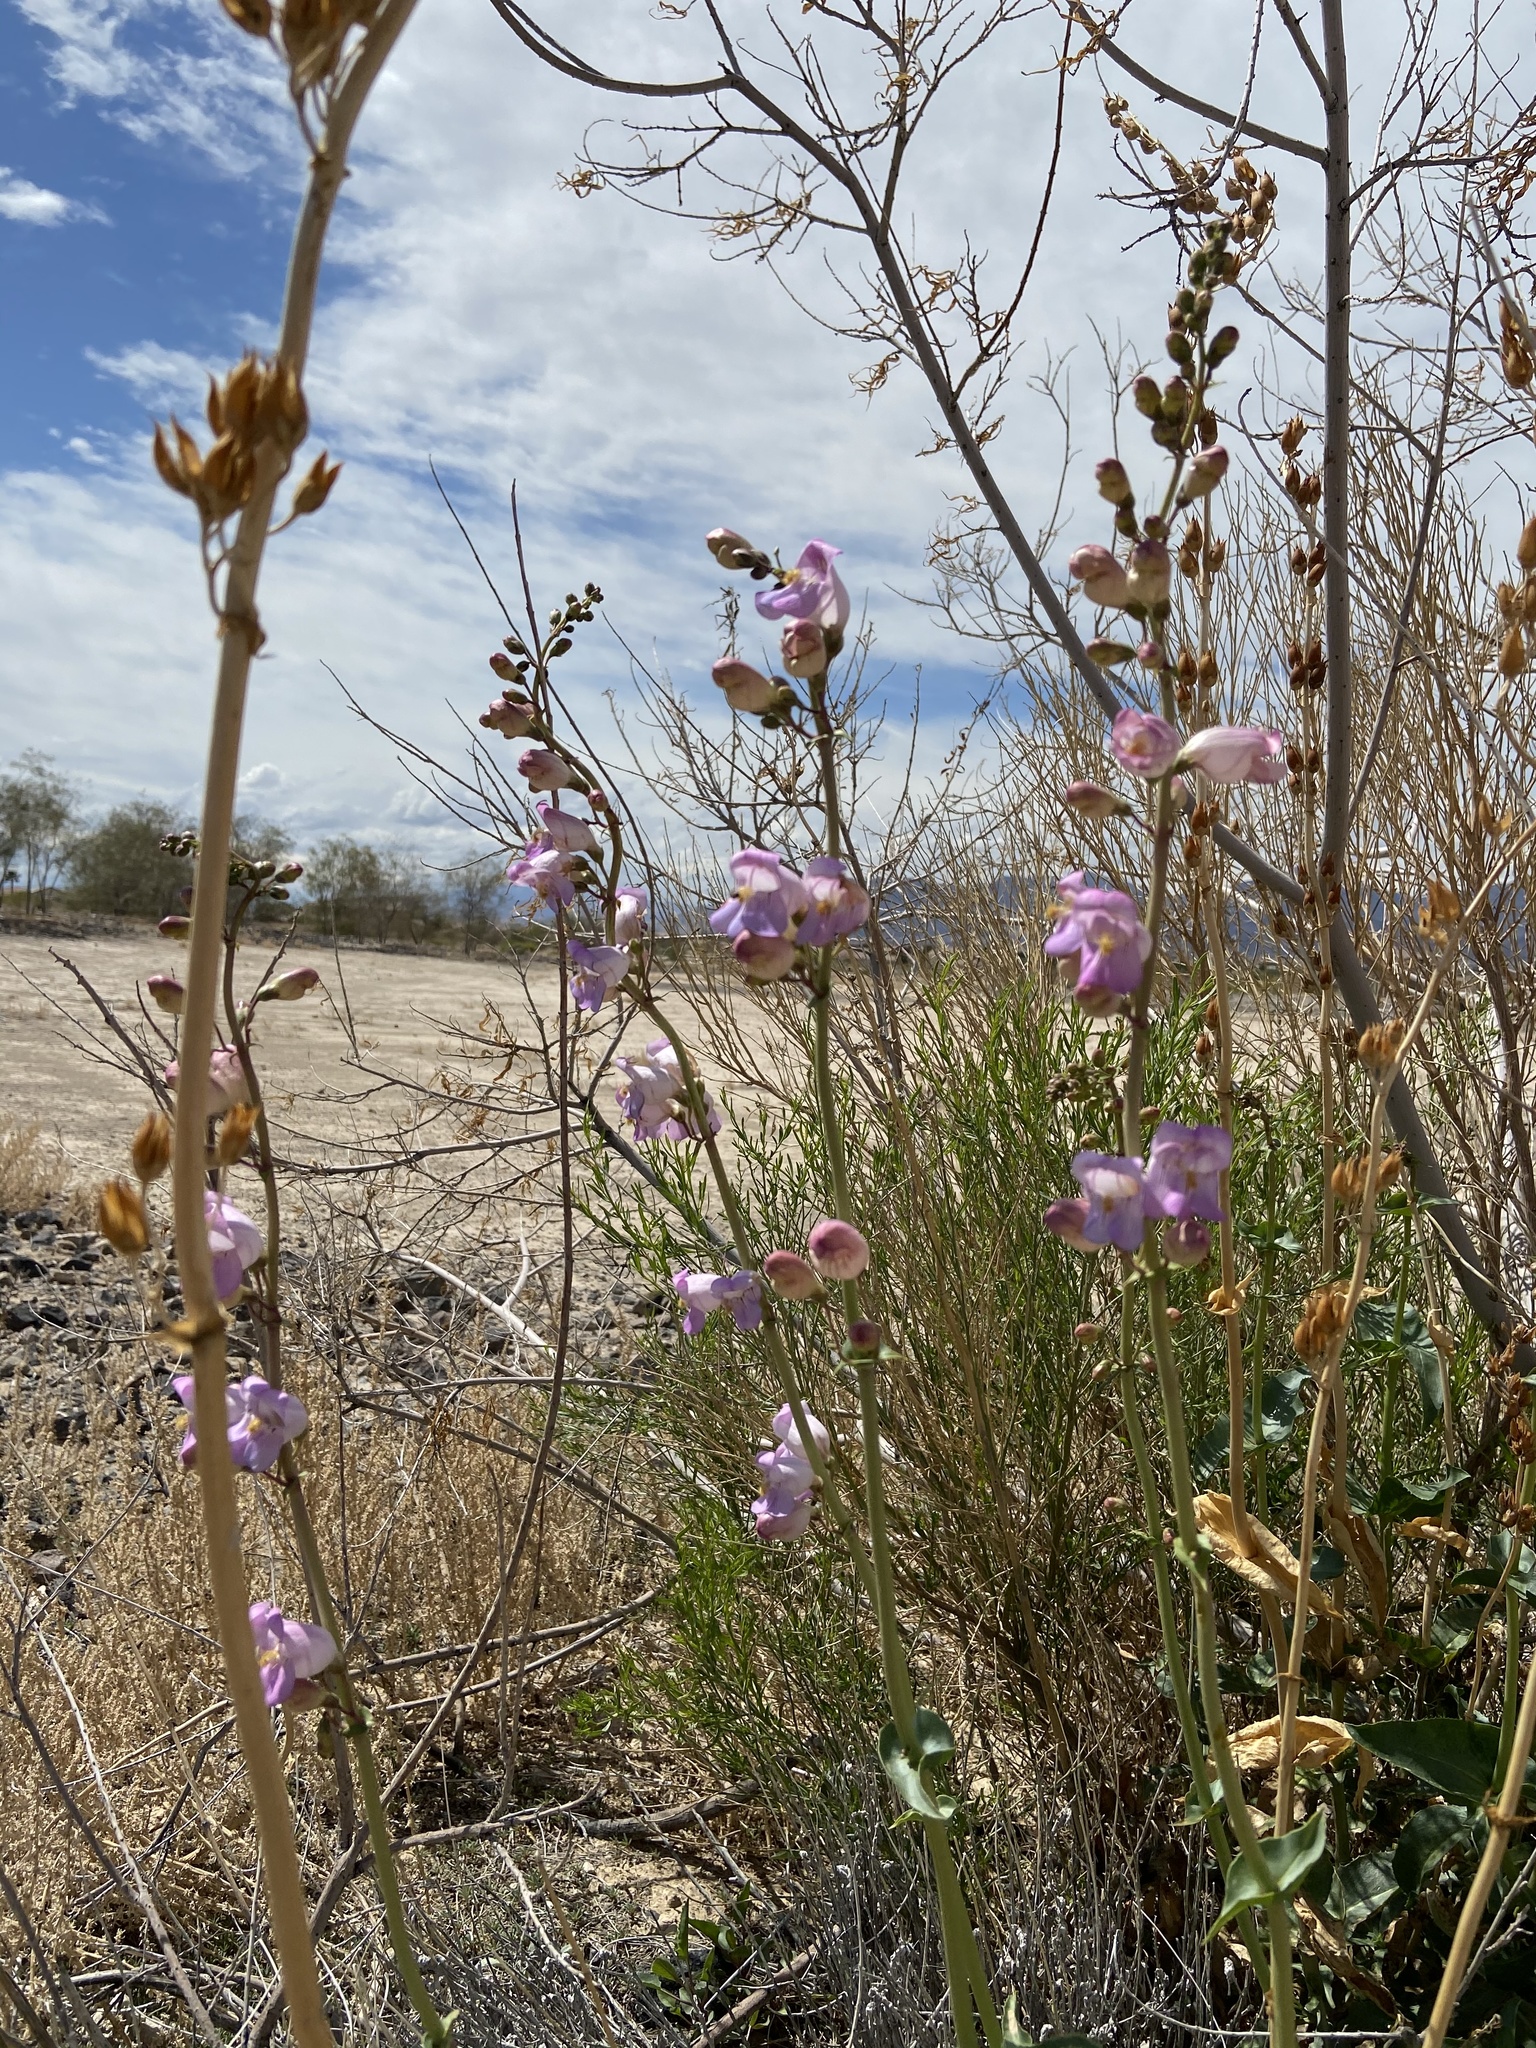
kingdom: Plantae
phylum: Tracheophyta
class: Magnoliopsida
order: Lamiales
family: Plantaginaceae
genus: Penstemon
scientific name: Penstemon palmeri
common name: Palmer penstemon
